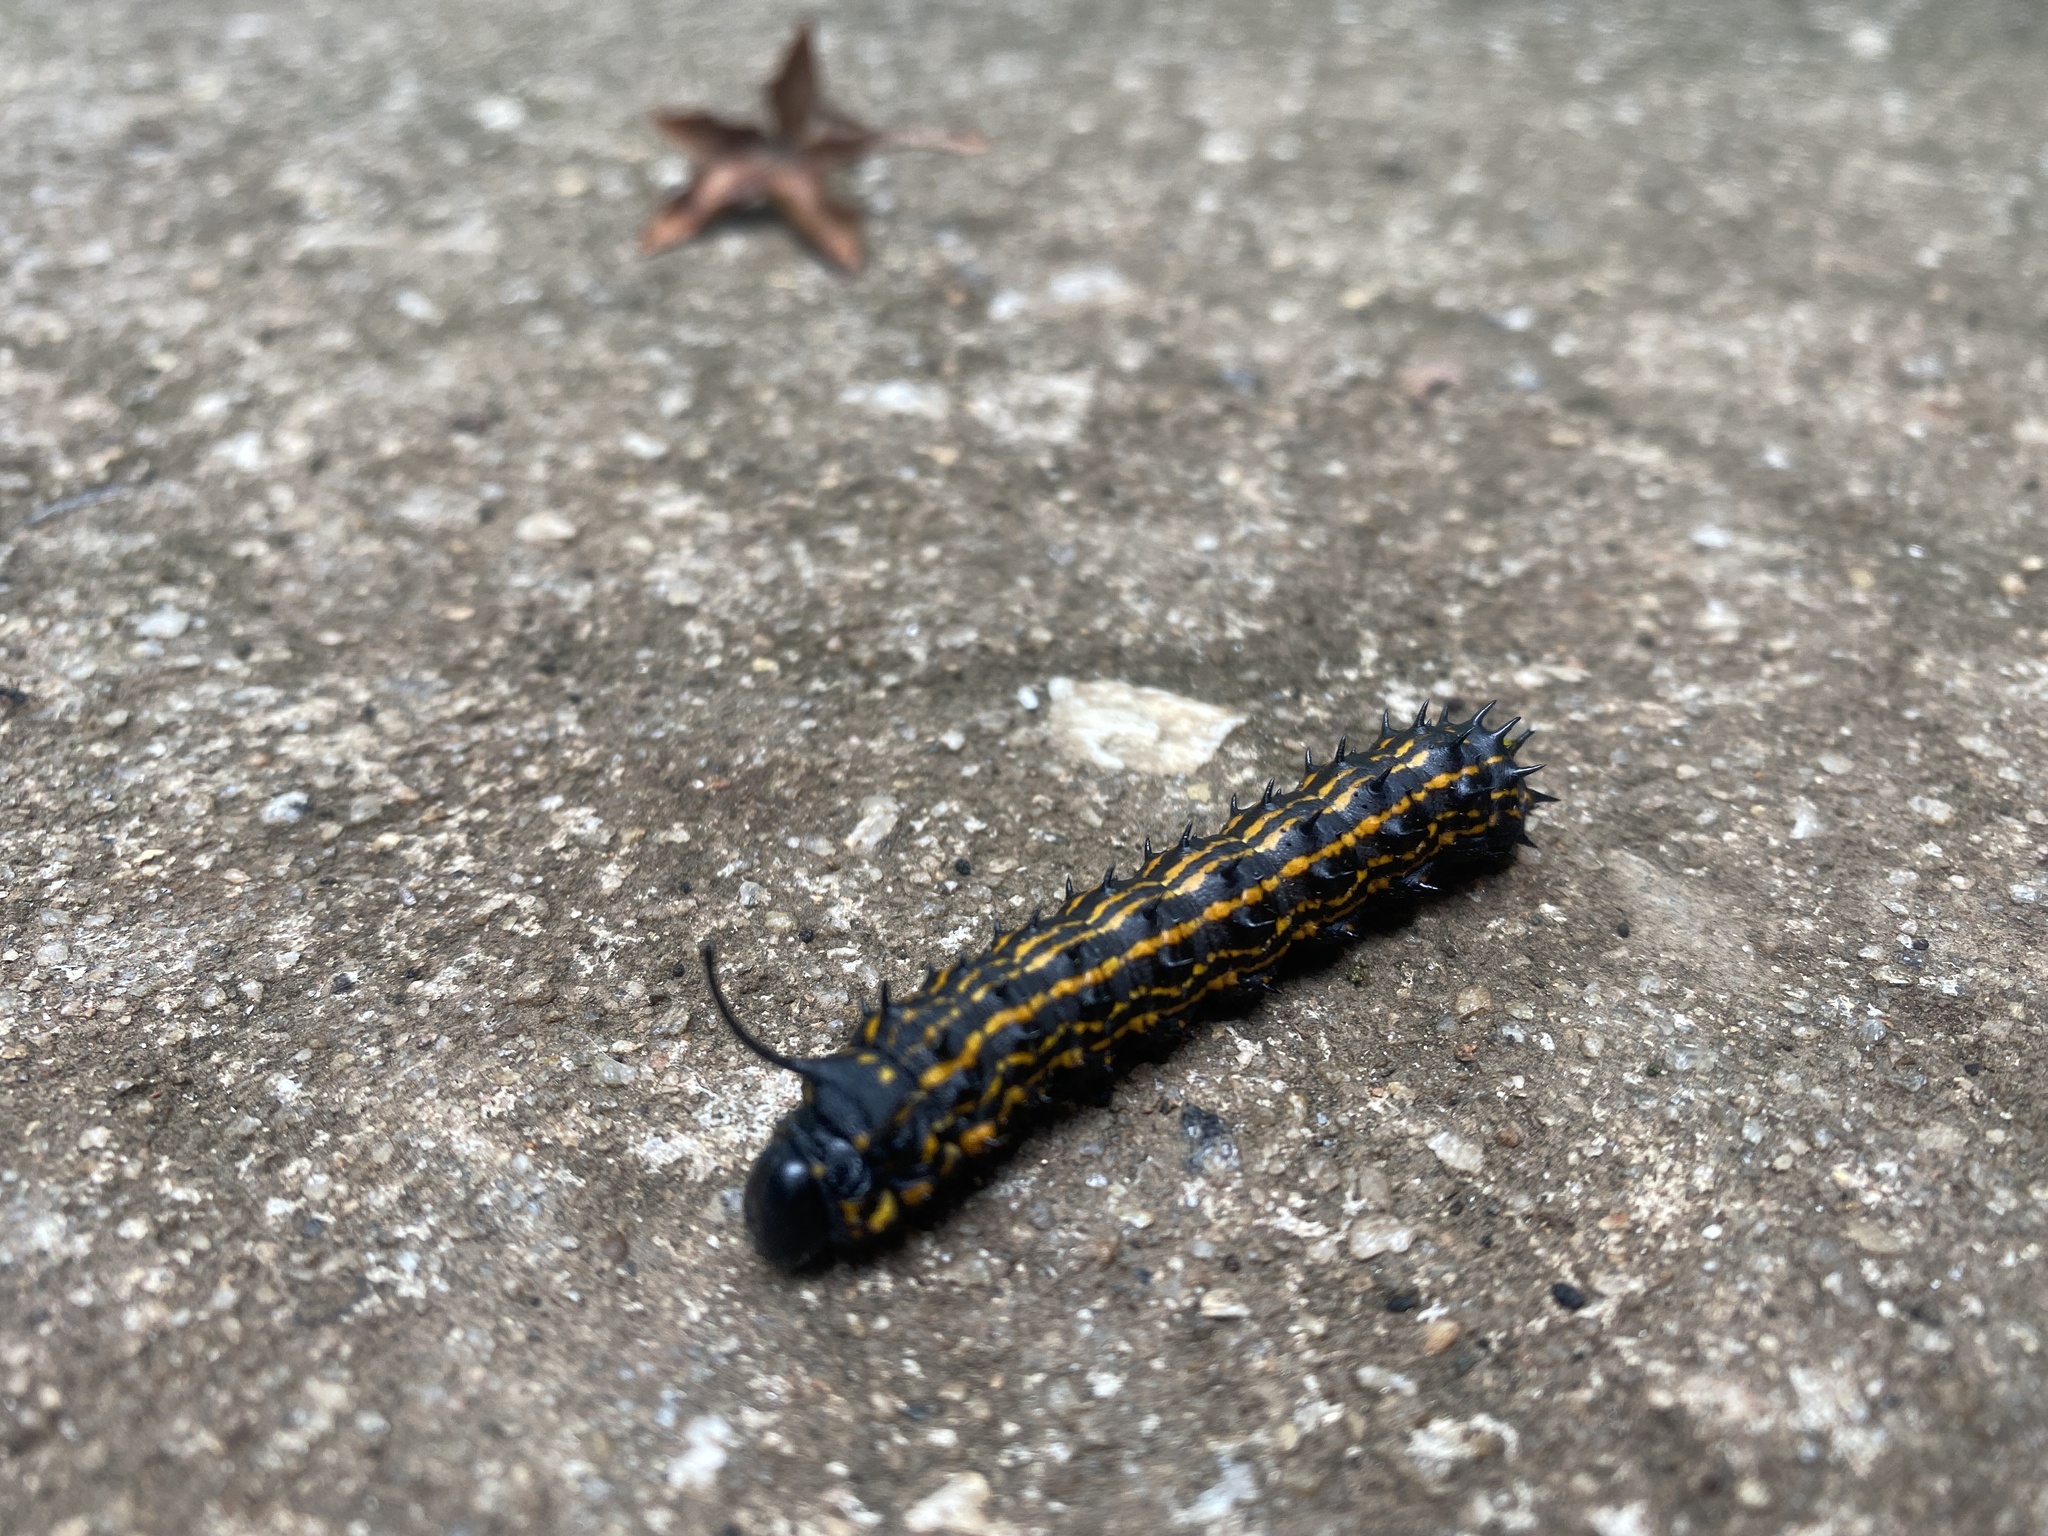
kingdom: Animalia
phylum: Arthropoda
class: Insecta
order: Lepidoptera
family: Saturniidae
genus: Anisota
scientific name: Anisota peigleri
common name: Peigler's oakworm moth
